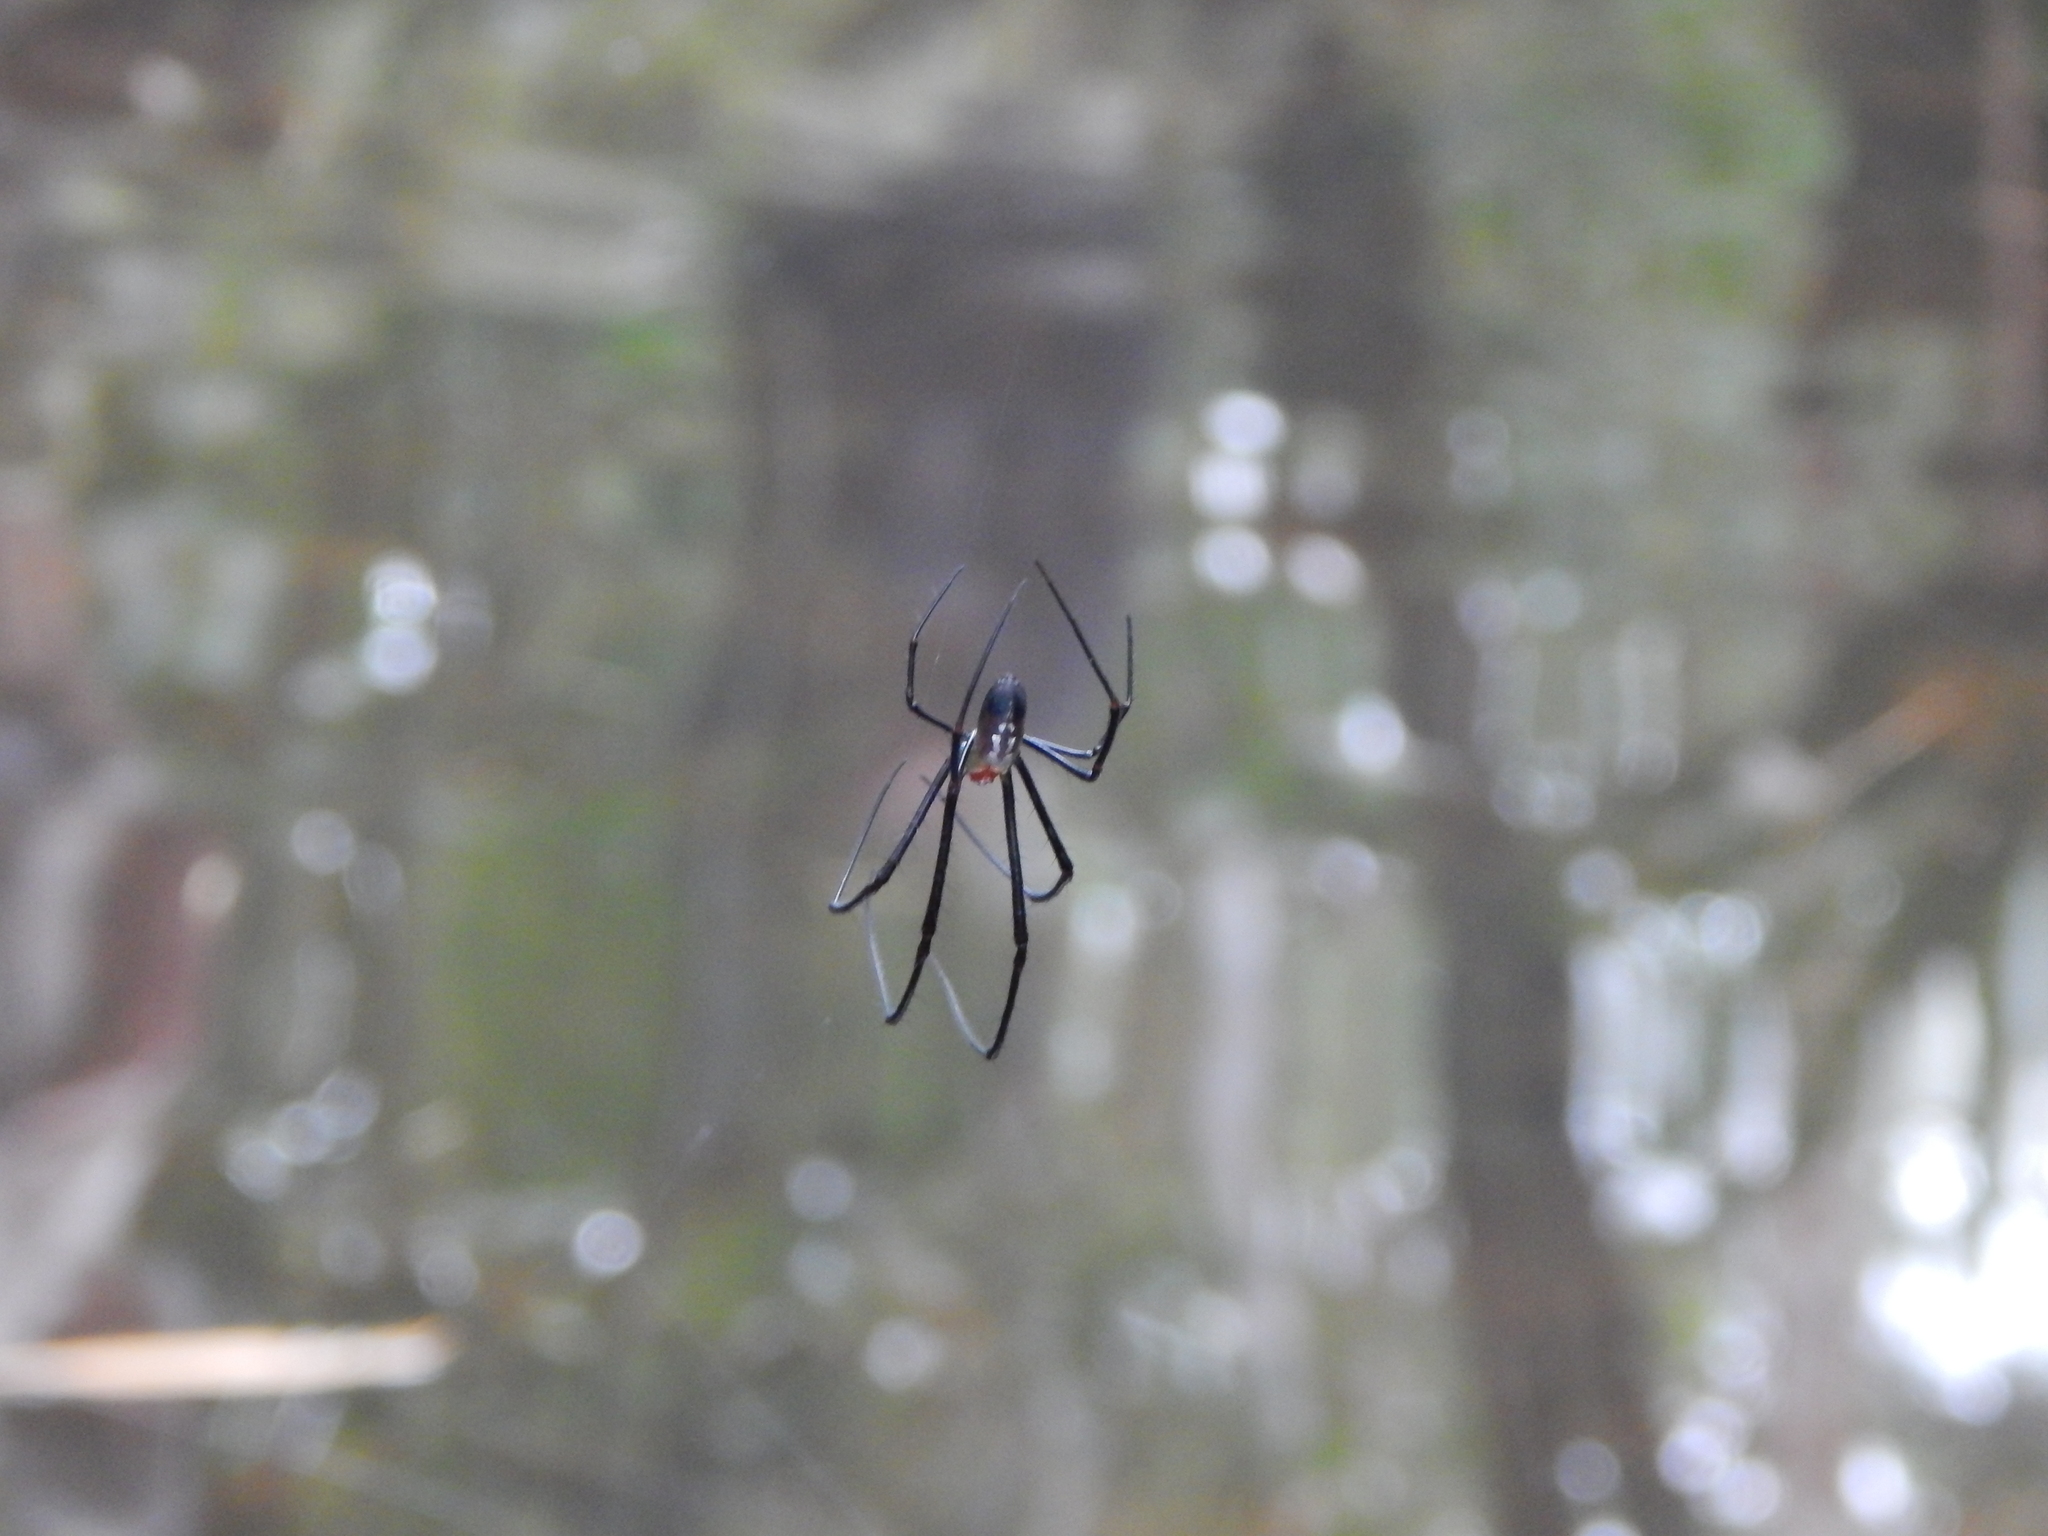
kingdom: Animalia
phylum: Arthropoda
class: Arachnida
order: Araneae
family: Tetragnathidae
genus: Leucauge
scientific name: Leucauge
